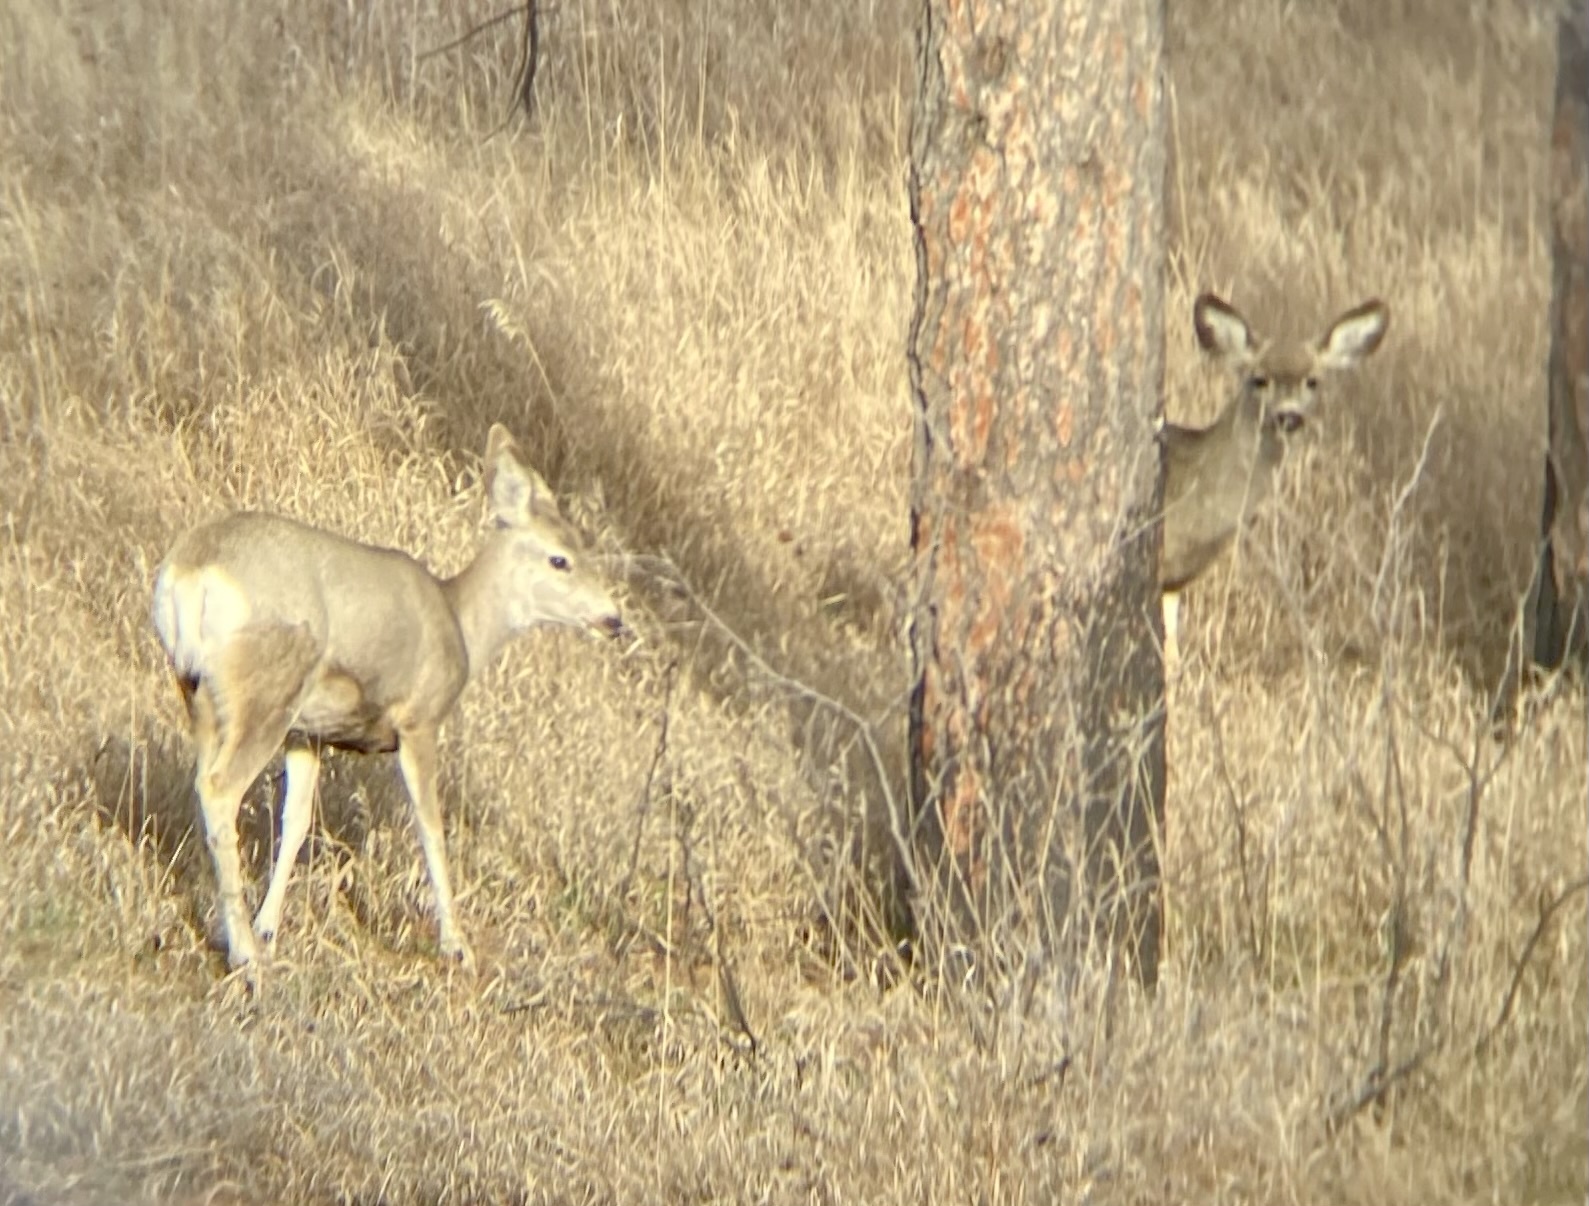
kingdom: Animalia
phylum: Chordata
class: Mammalia
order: Artiodactyla
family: Cervidae
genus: Odocoileus
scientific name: Odocoileus hemionus
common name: Mule deer
